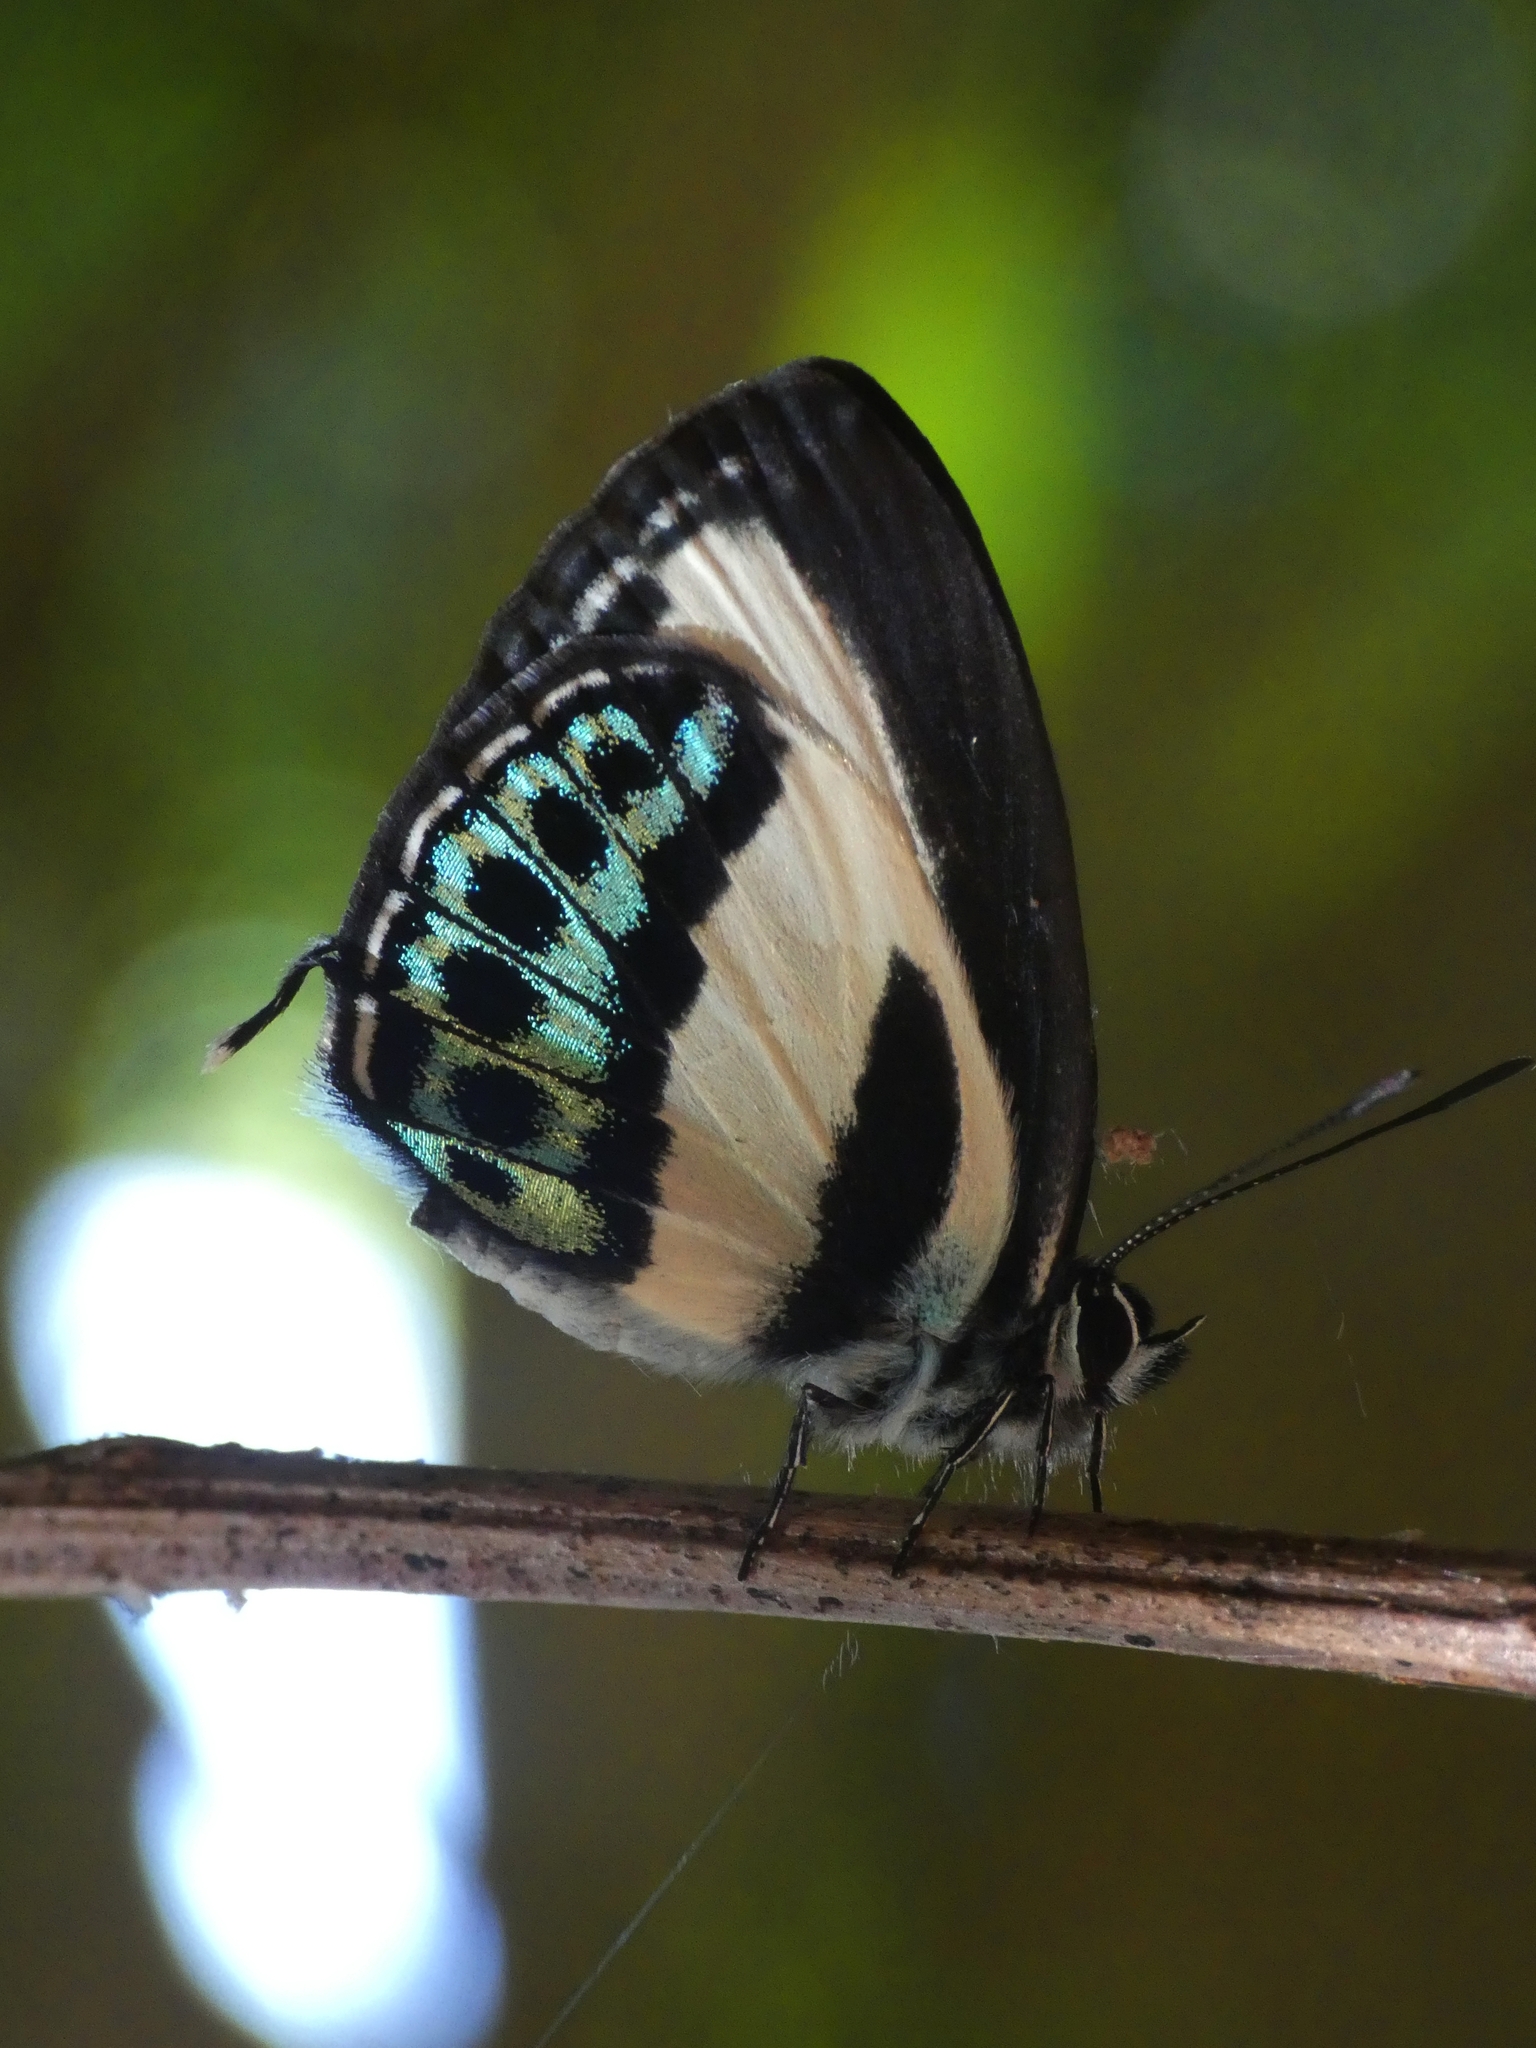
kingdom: Animalia
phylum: Arthropoda
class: Insecta
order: Lepidoptera
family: Lycaenidae
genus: Nacaduba
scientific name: Nacaduba cyanea
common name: Tailed green-banded line blue
